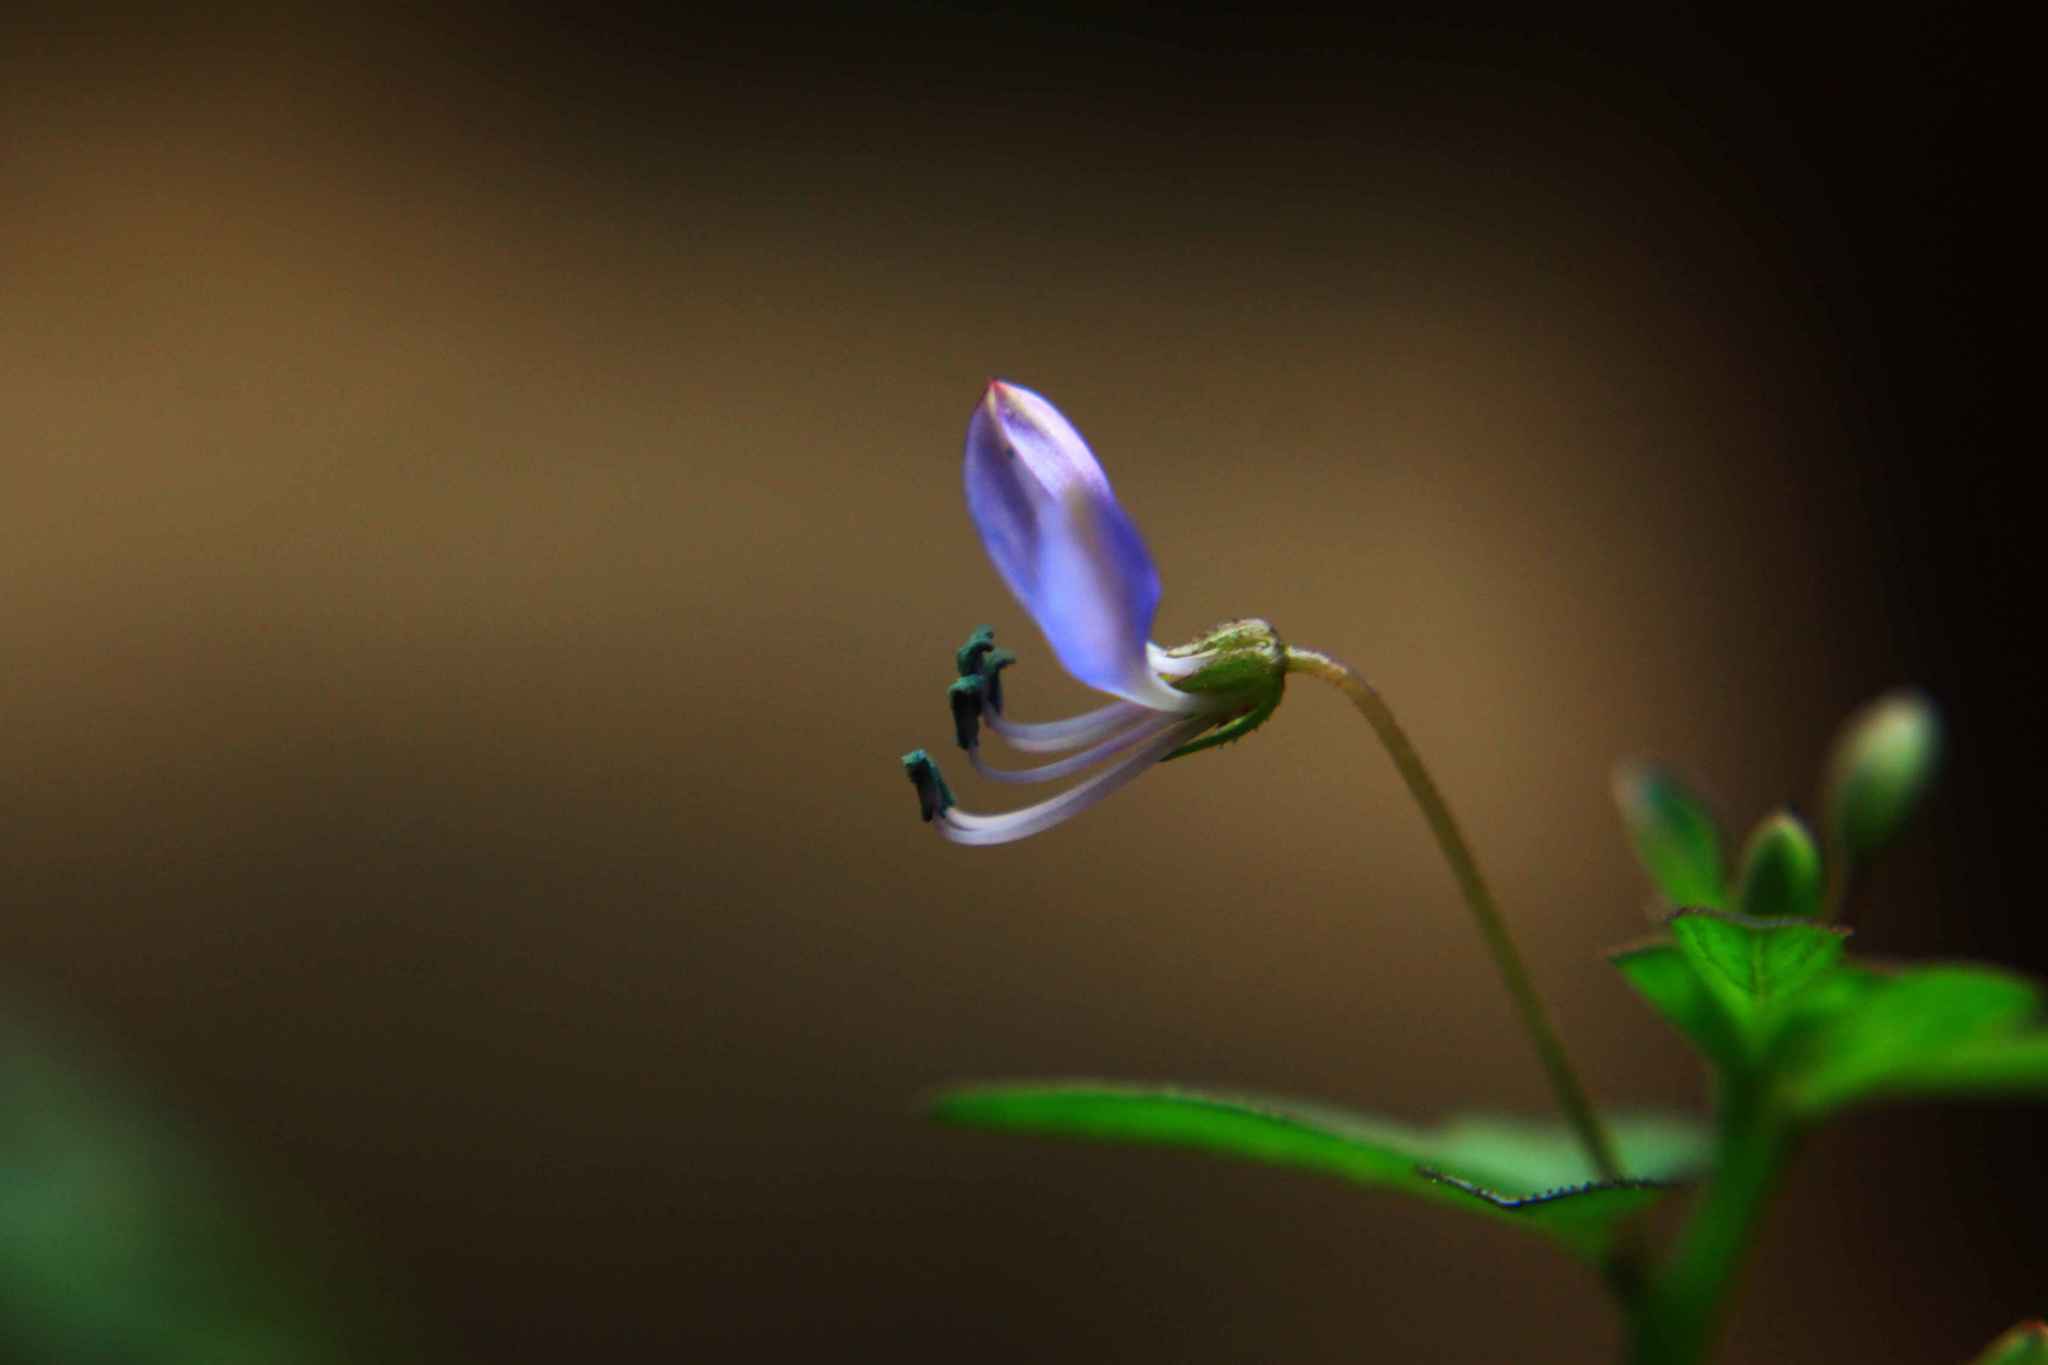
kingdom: Plantae
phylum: Tracheophyta
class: Magnoliopsida
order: Brassicales
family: Cleomaceae
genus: Sieruela
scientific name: Sieruela rutidosperma
